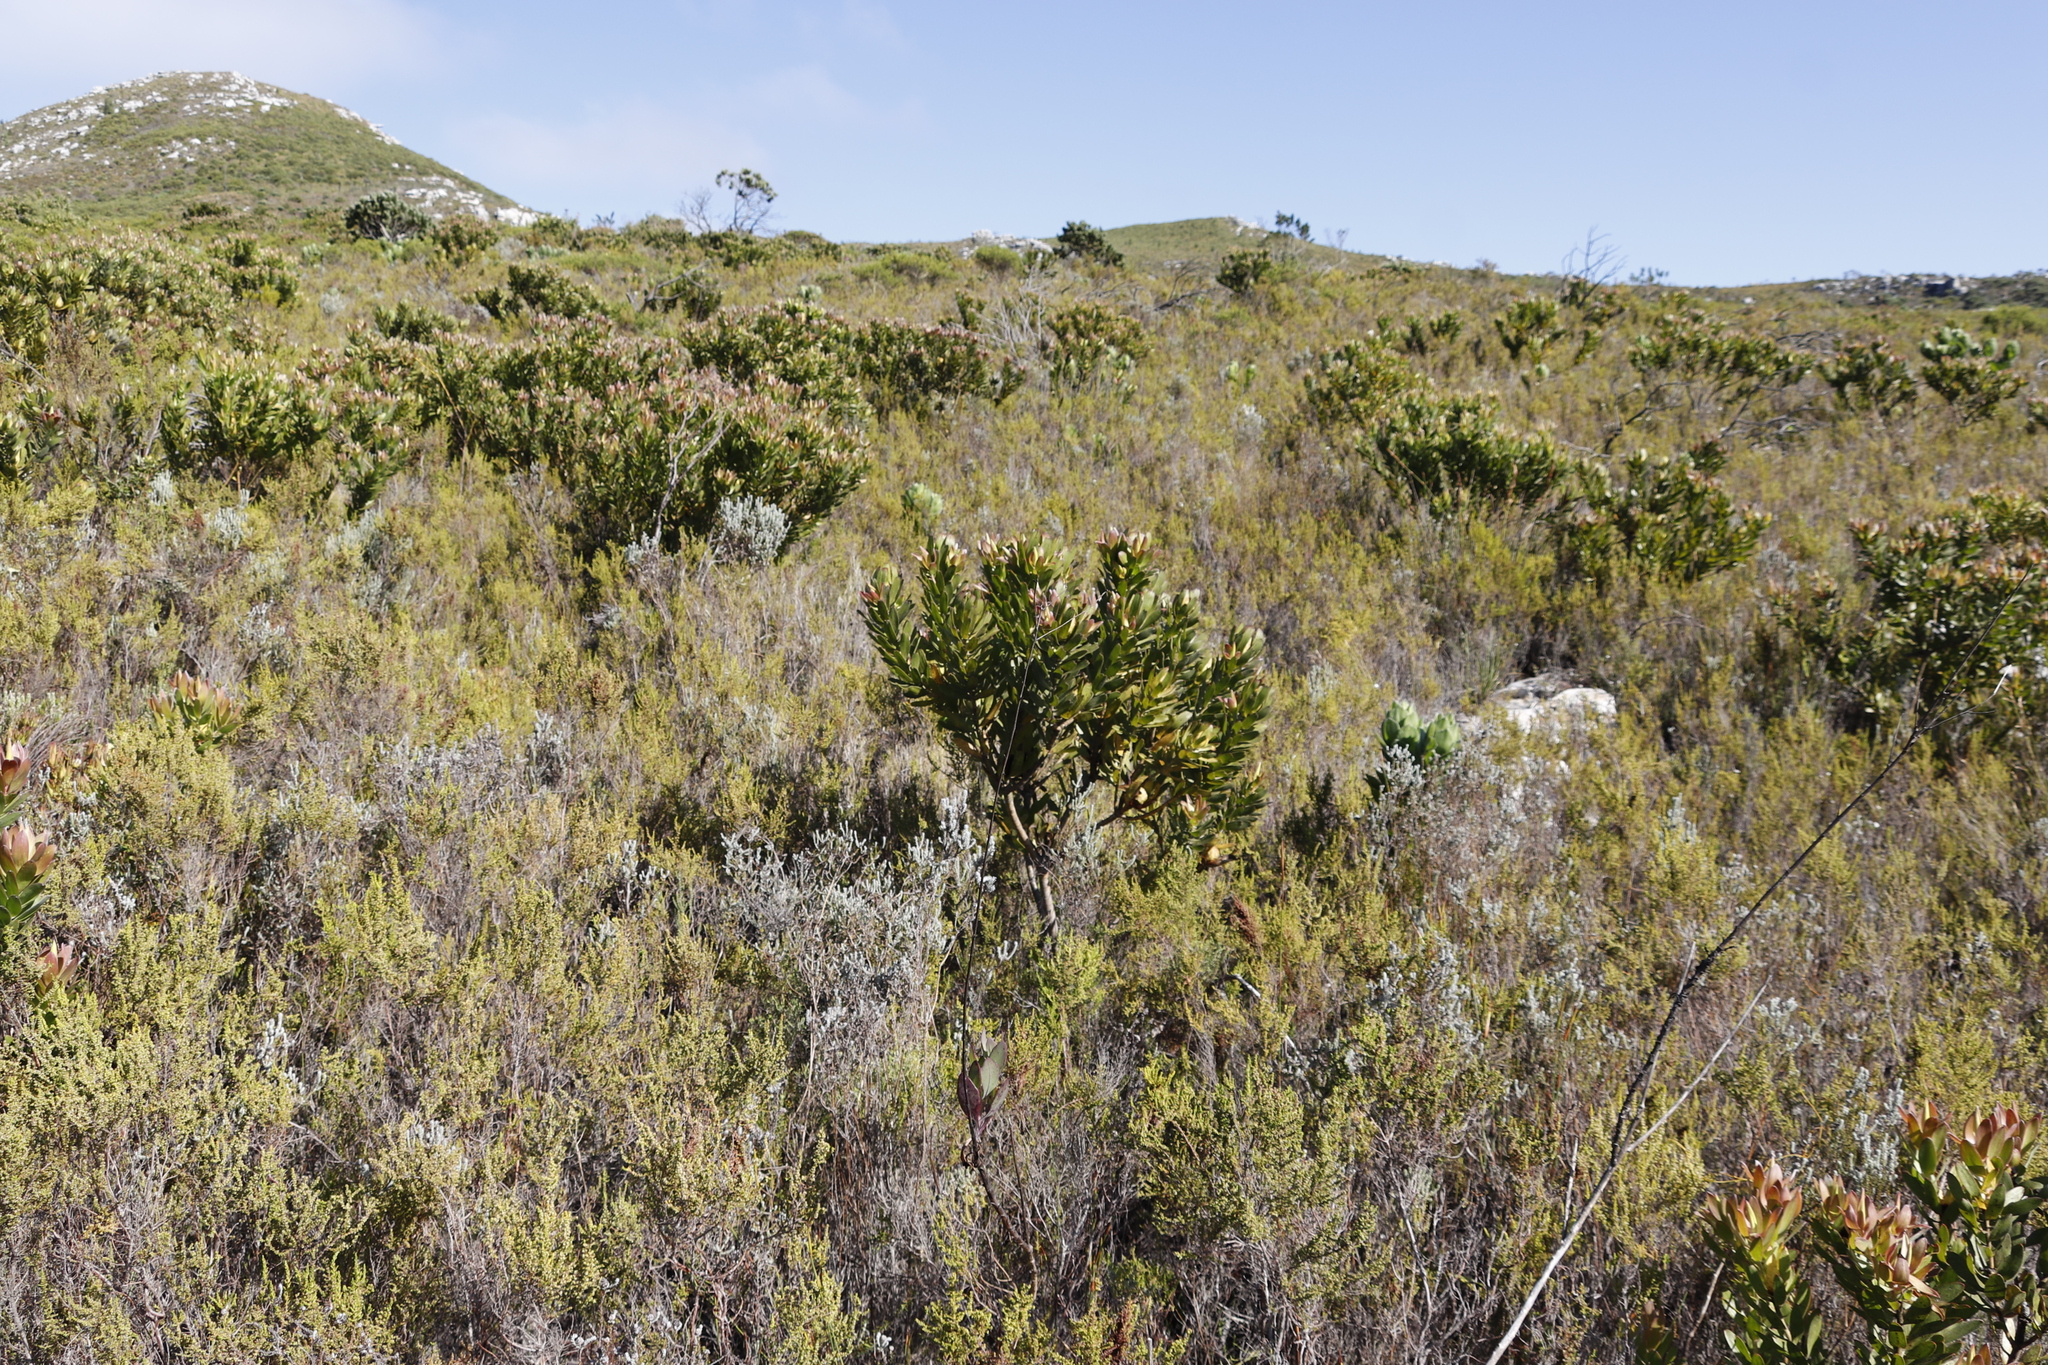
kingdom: Plantae
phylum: Tracheophyta
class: Magnoliopsida
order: Proteales
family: Proteaceae
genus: Protea
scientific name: Protea lepidocarpodendron
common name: Black-bearded protea
